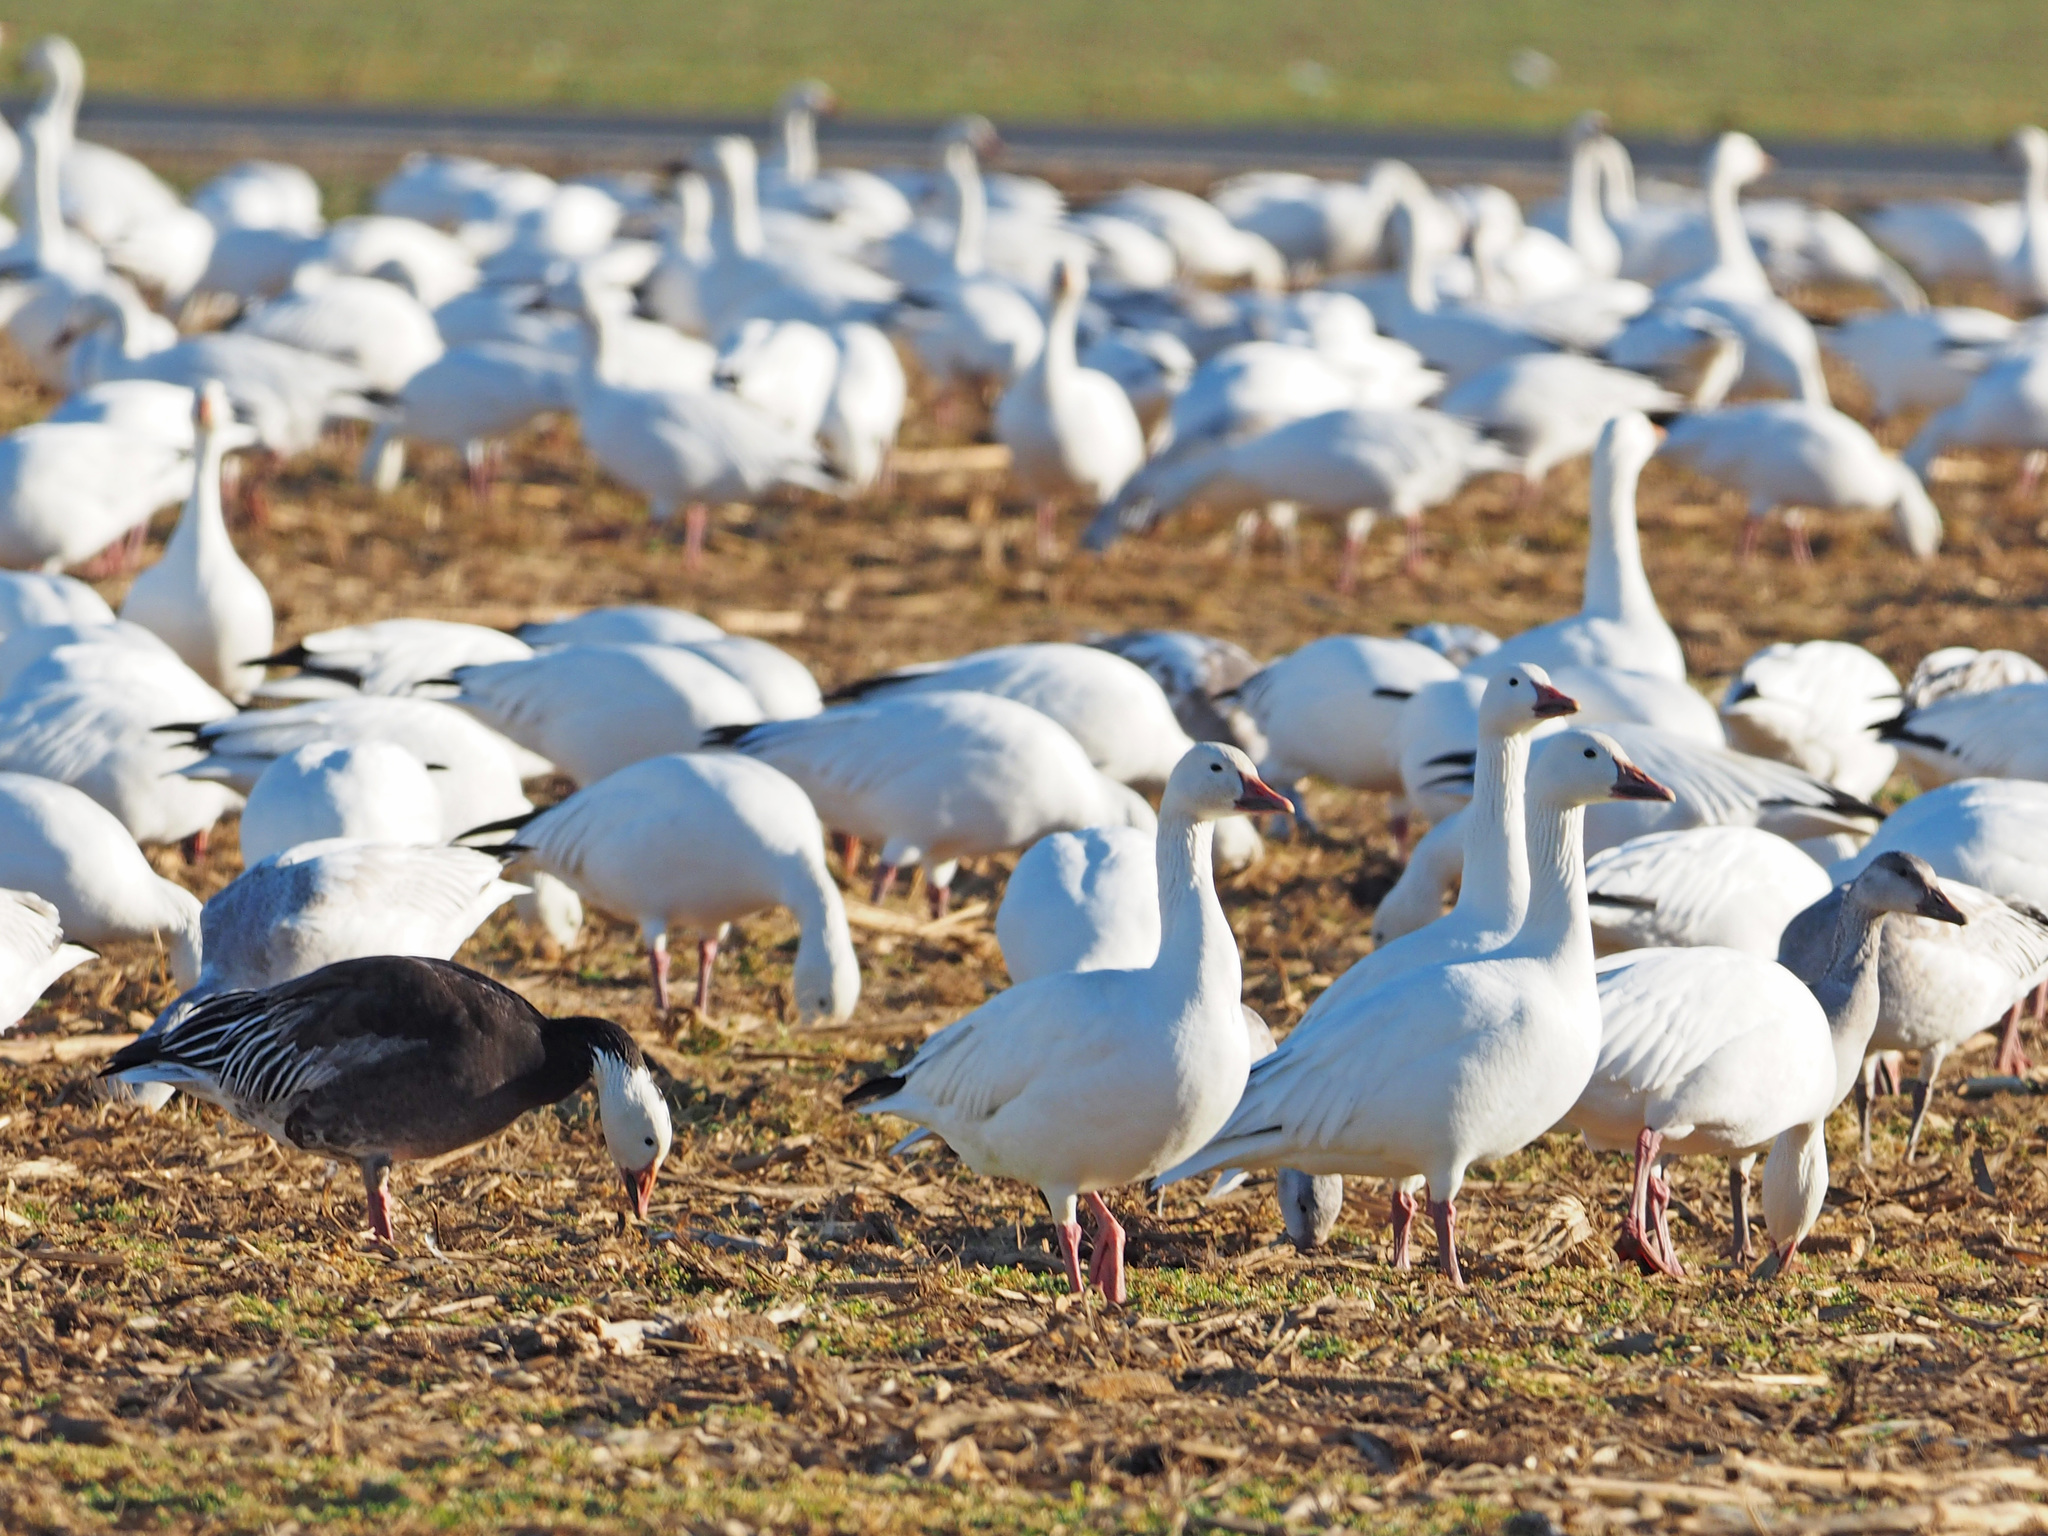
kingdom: Animalia
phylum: Chordata
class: Aves
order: Anseriformes
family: Anatidae
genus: Anser
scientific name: Anser caerulescens
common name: Snow goose
